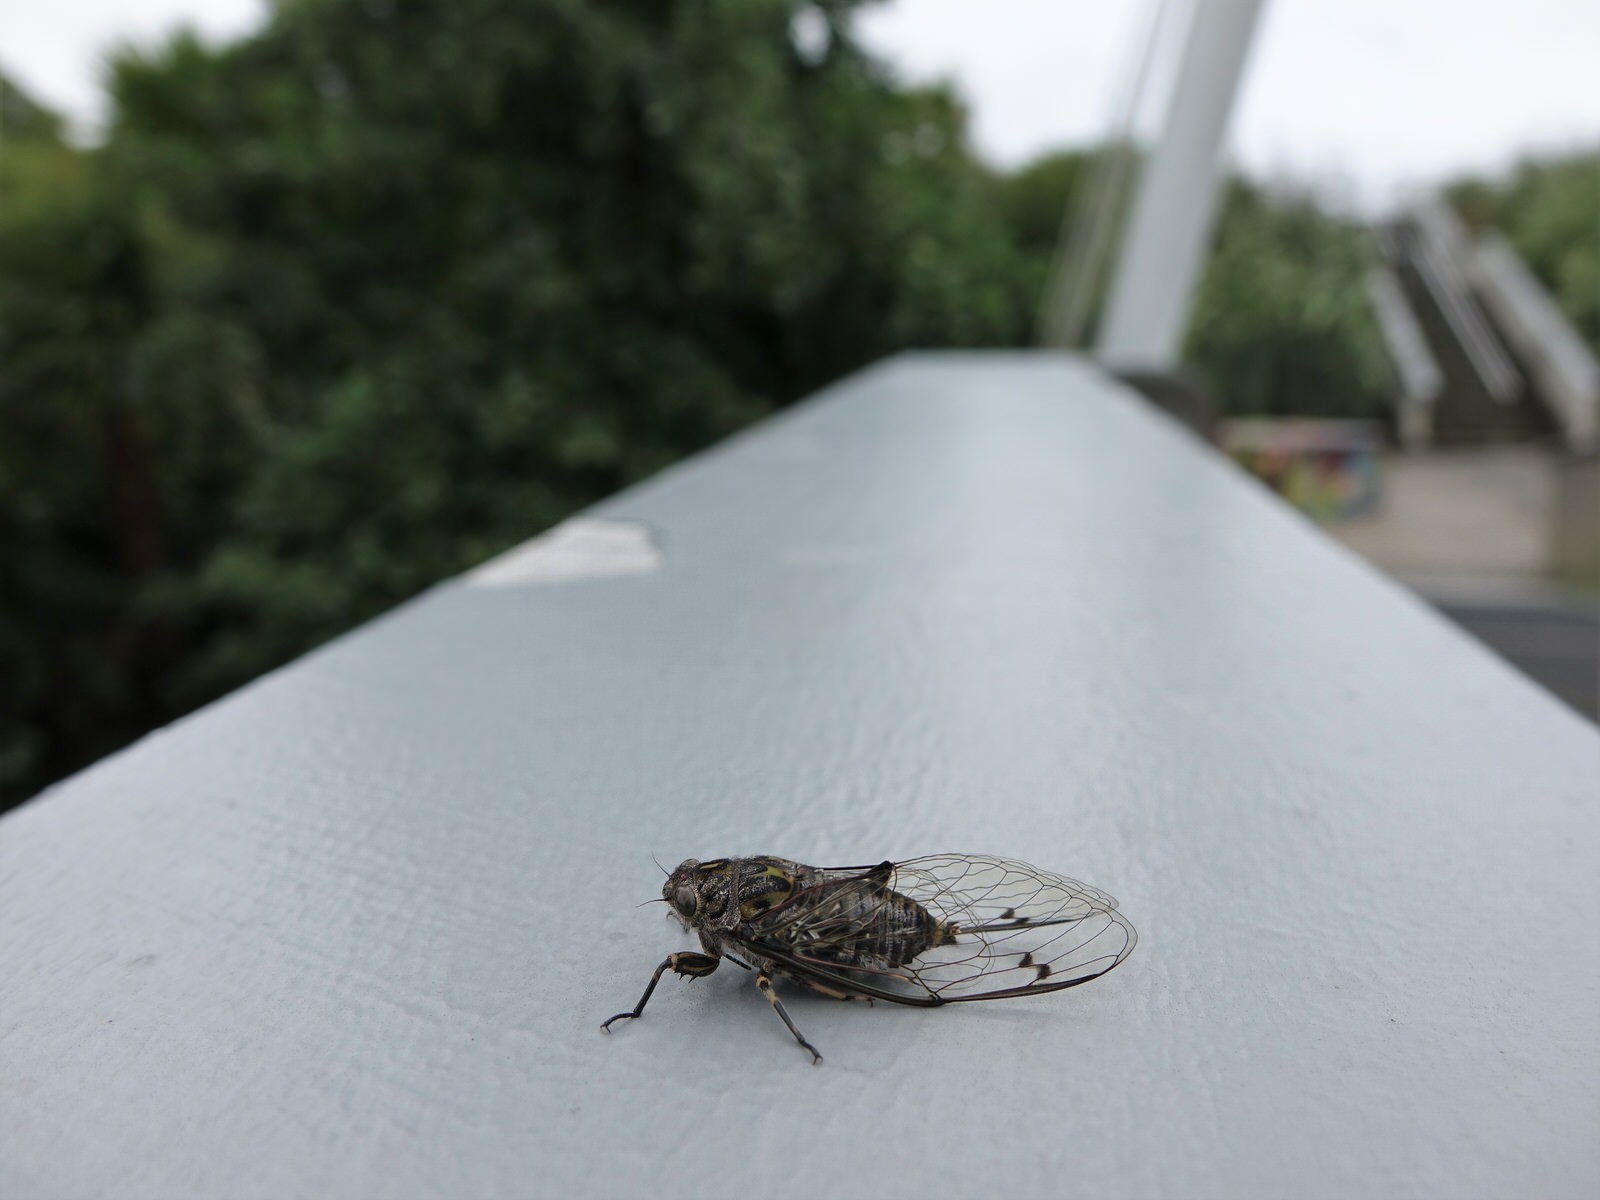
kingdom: Animalia
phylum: Arthropoda
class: Insecta
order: Hemiptera
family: Cicadidae
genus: Amphipsalta
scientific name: Amphipsalta cingulata
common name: Clapping cicada
